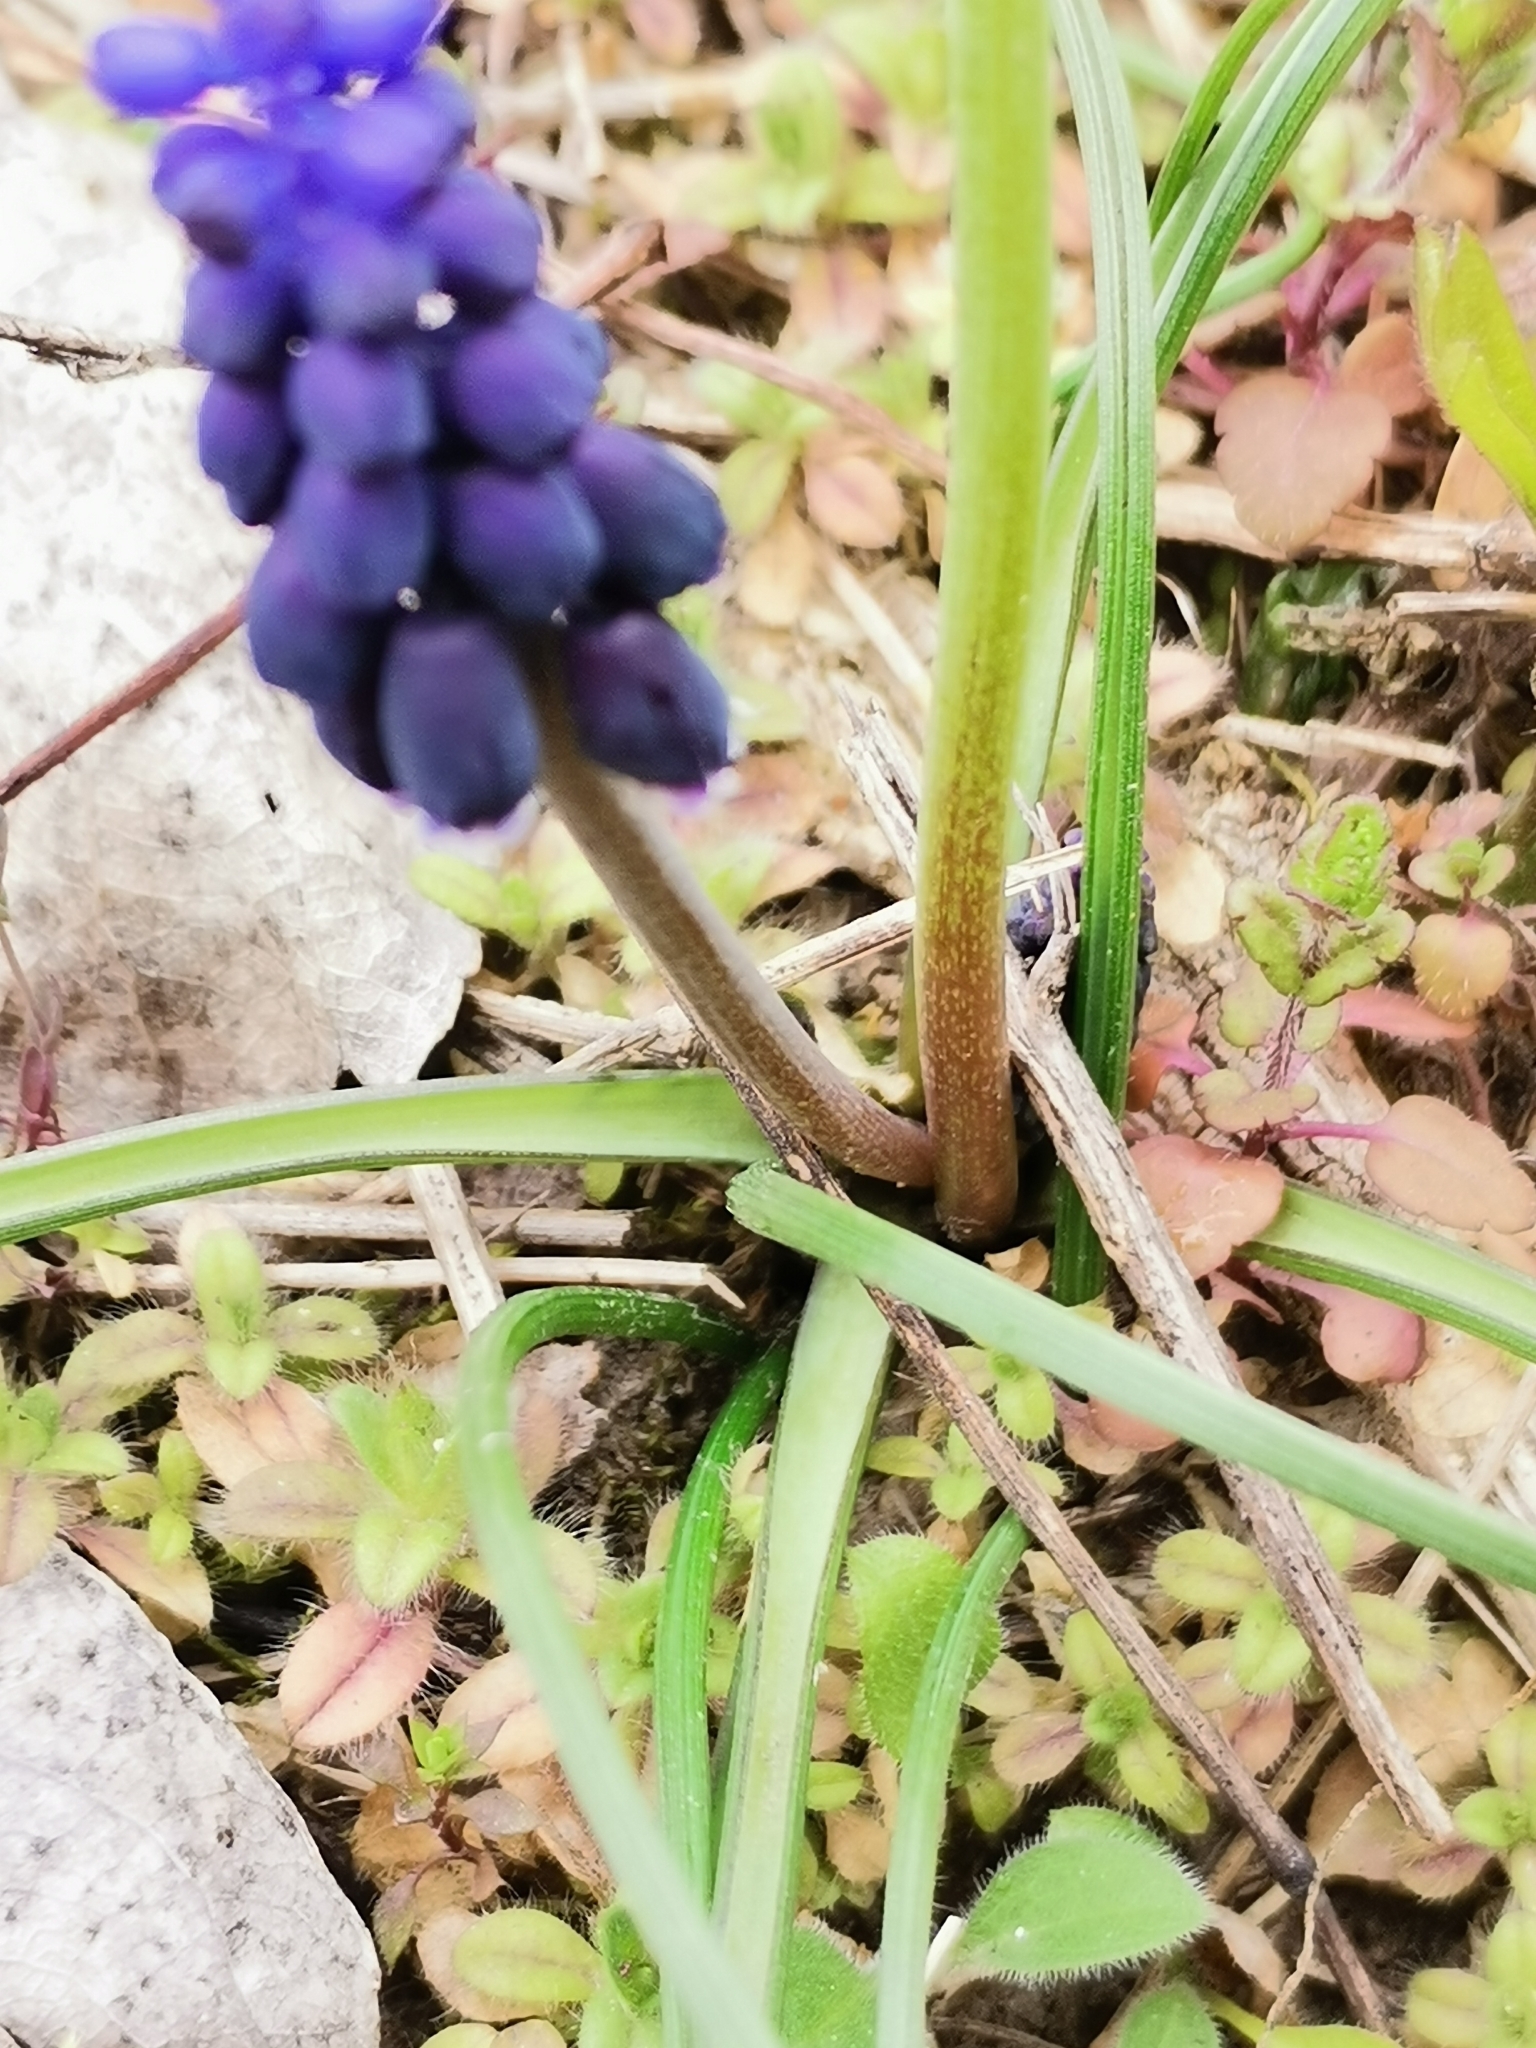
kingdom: Plantae
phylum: Tracheophyta
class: Liliopsida
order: Asparagales
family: Asparagaceae
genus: Muscari
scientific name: Muscari neglectum
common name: Grape-hyacinth
